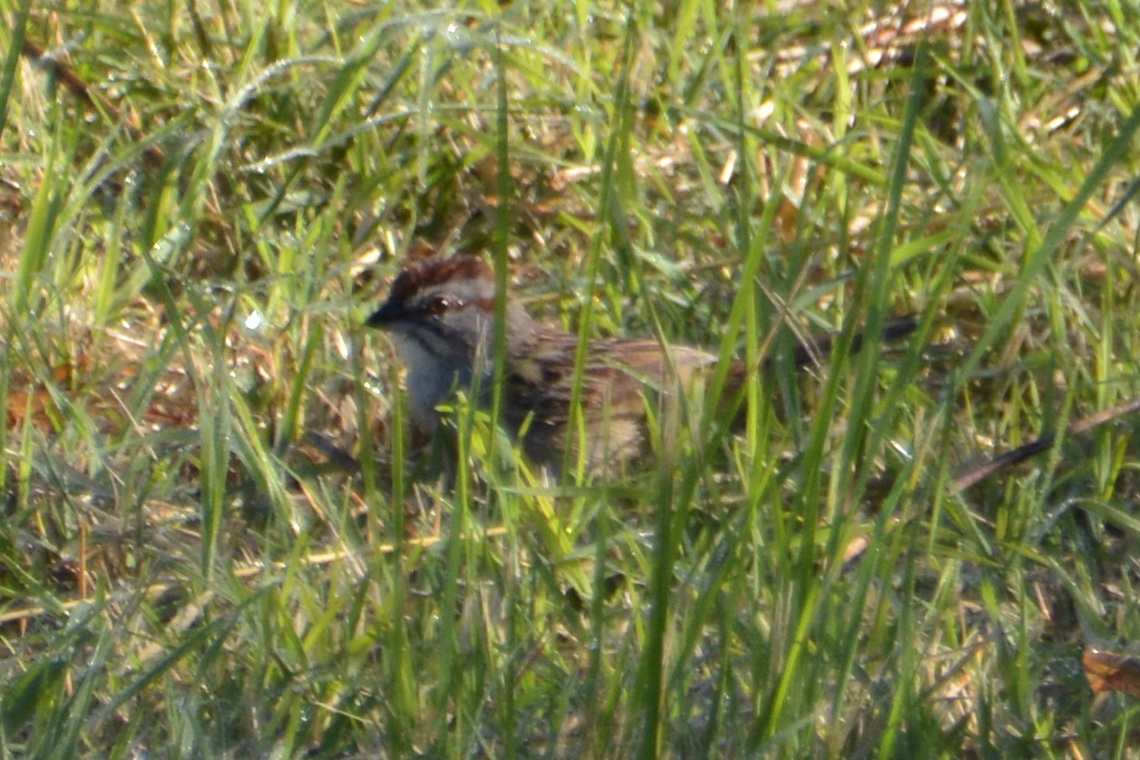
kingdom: Animalia
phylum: Chordata
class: Aves
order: Passeriformes
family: Passerellidae
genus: Rhynchospiza
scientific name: Rhynchospiza strigiceps
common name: Stripe-capped sparrow
